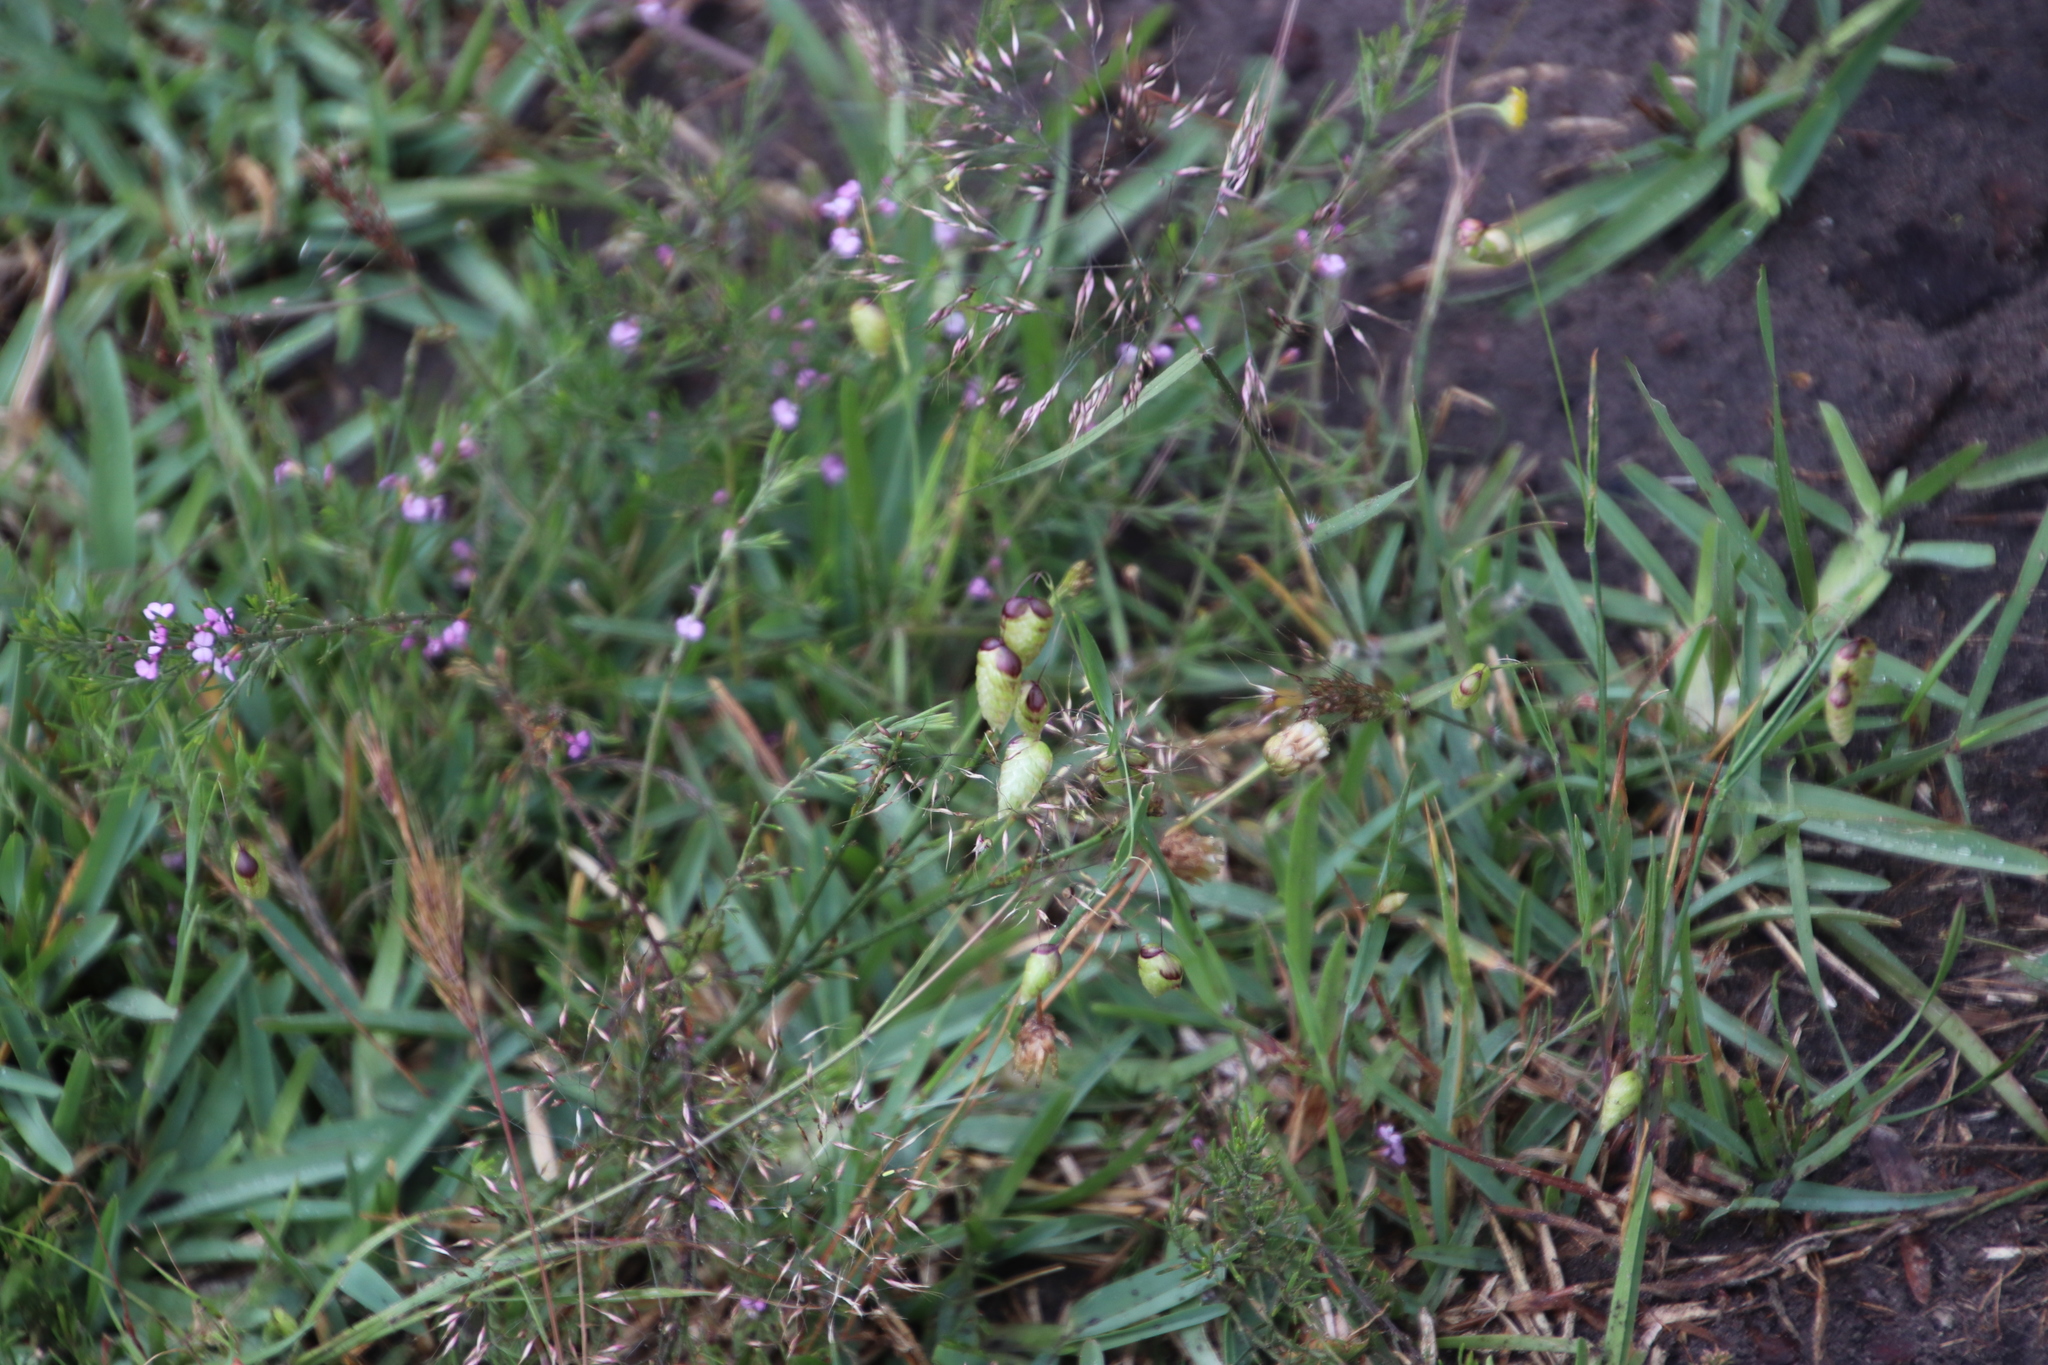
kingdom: Plantae
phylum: Tracheophyta
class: Liliopsida
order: Poales
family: Poaceae
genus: Briza
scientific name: Briza maxima
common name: Big quakinggrass
